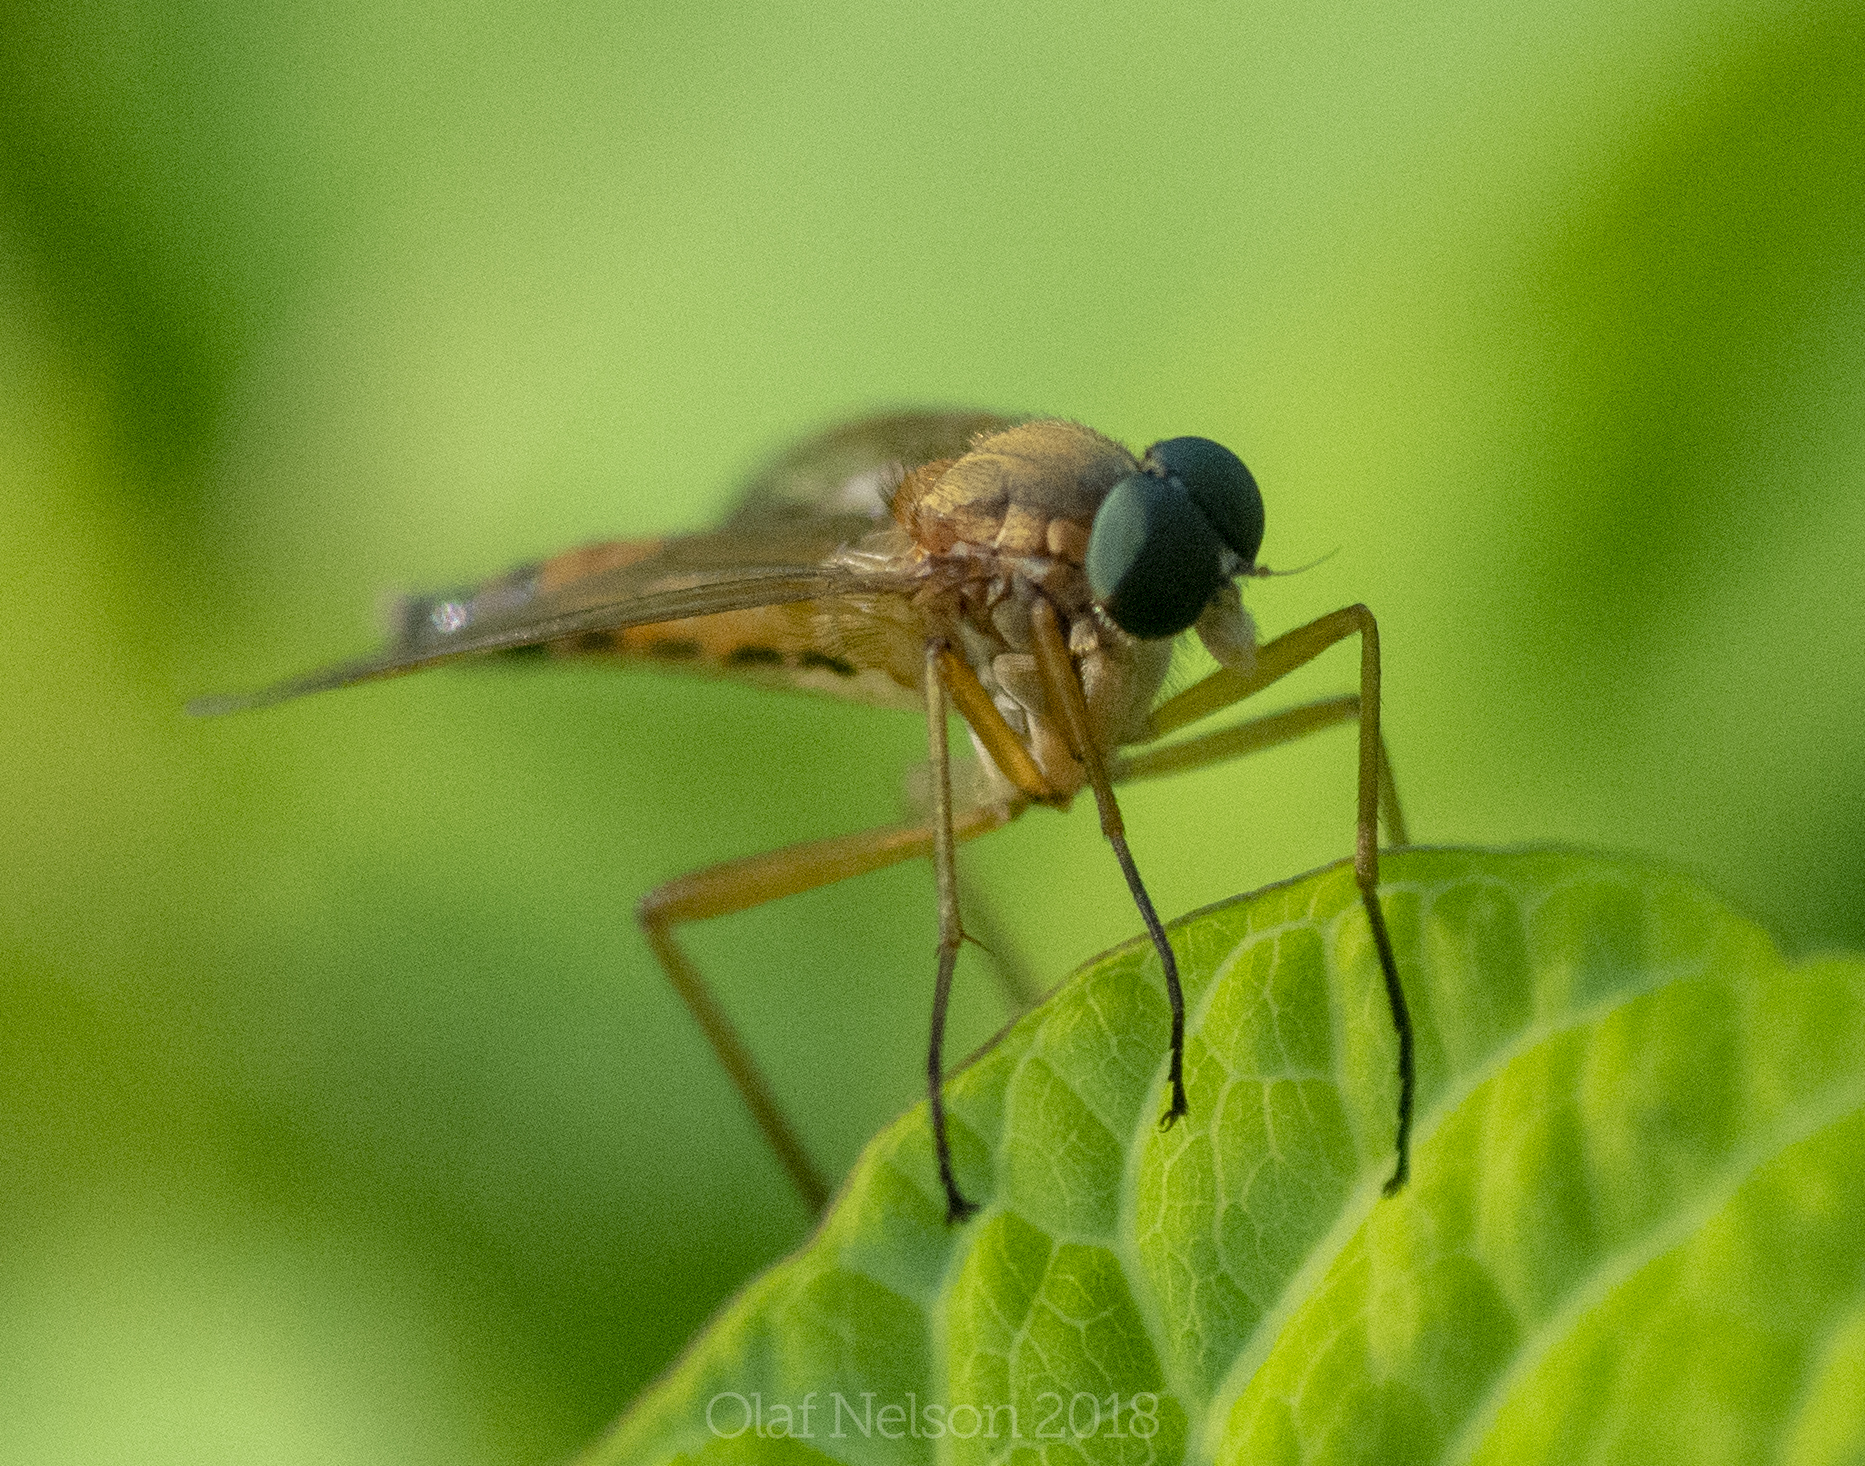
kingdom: Animalia
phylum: Arthropoda
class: Insecta
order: Diptera
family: Rhagionidae
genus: Rhagio
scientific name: Rhagio tringaria
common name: Marsh snipefly
